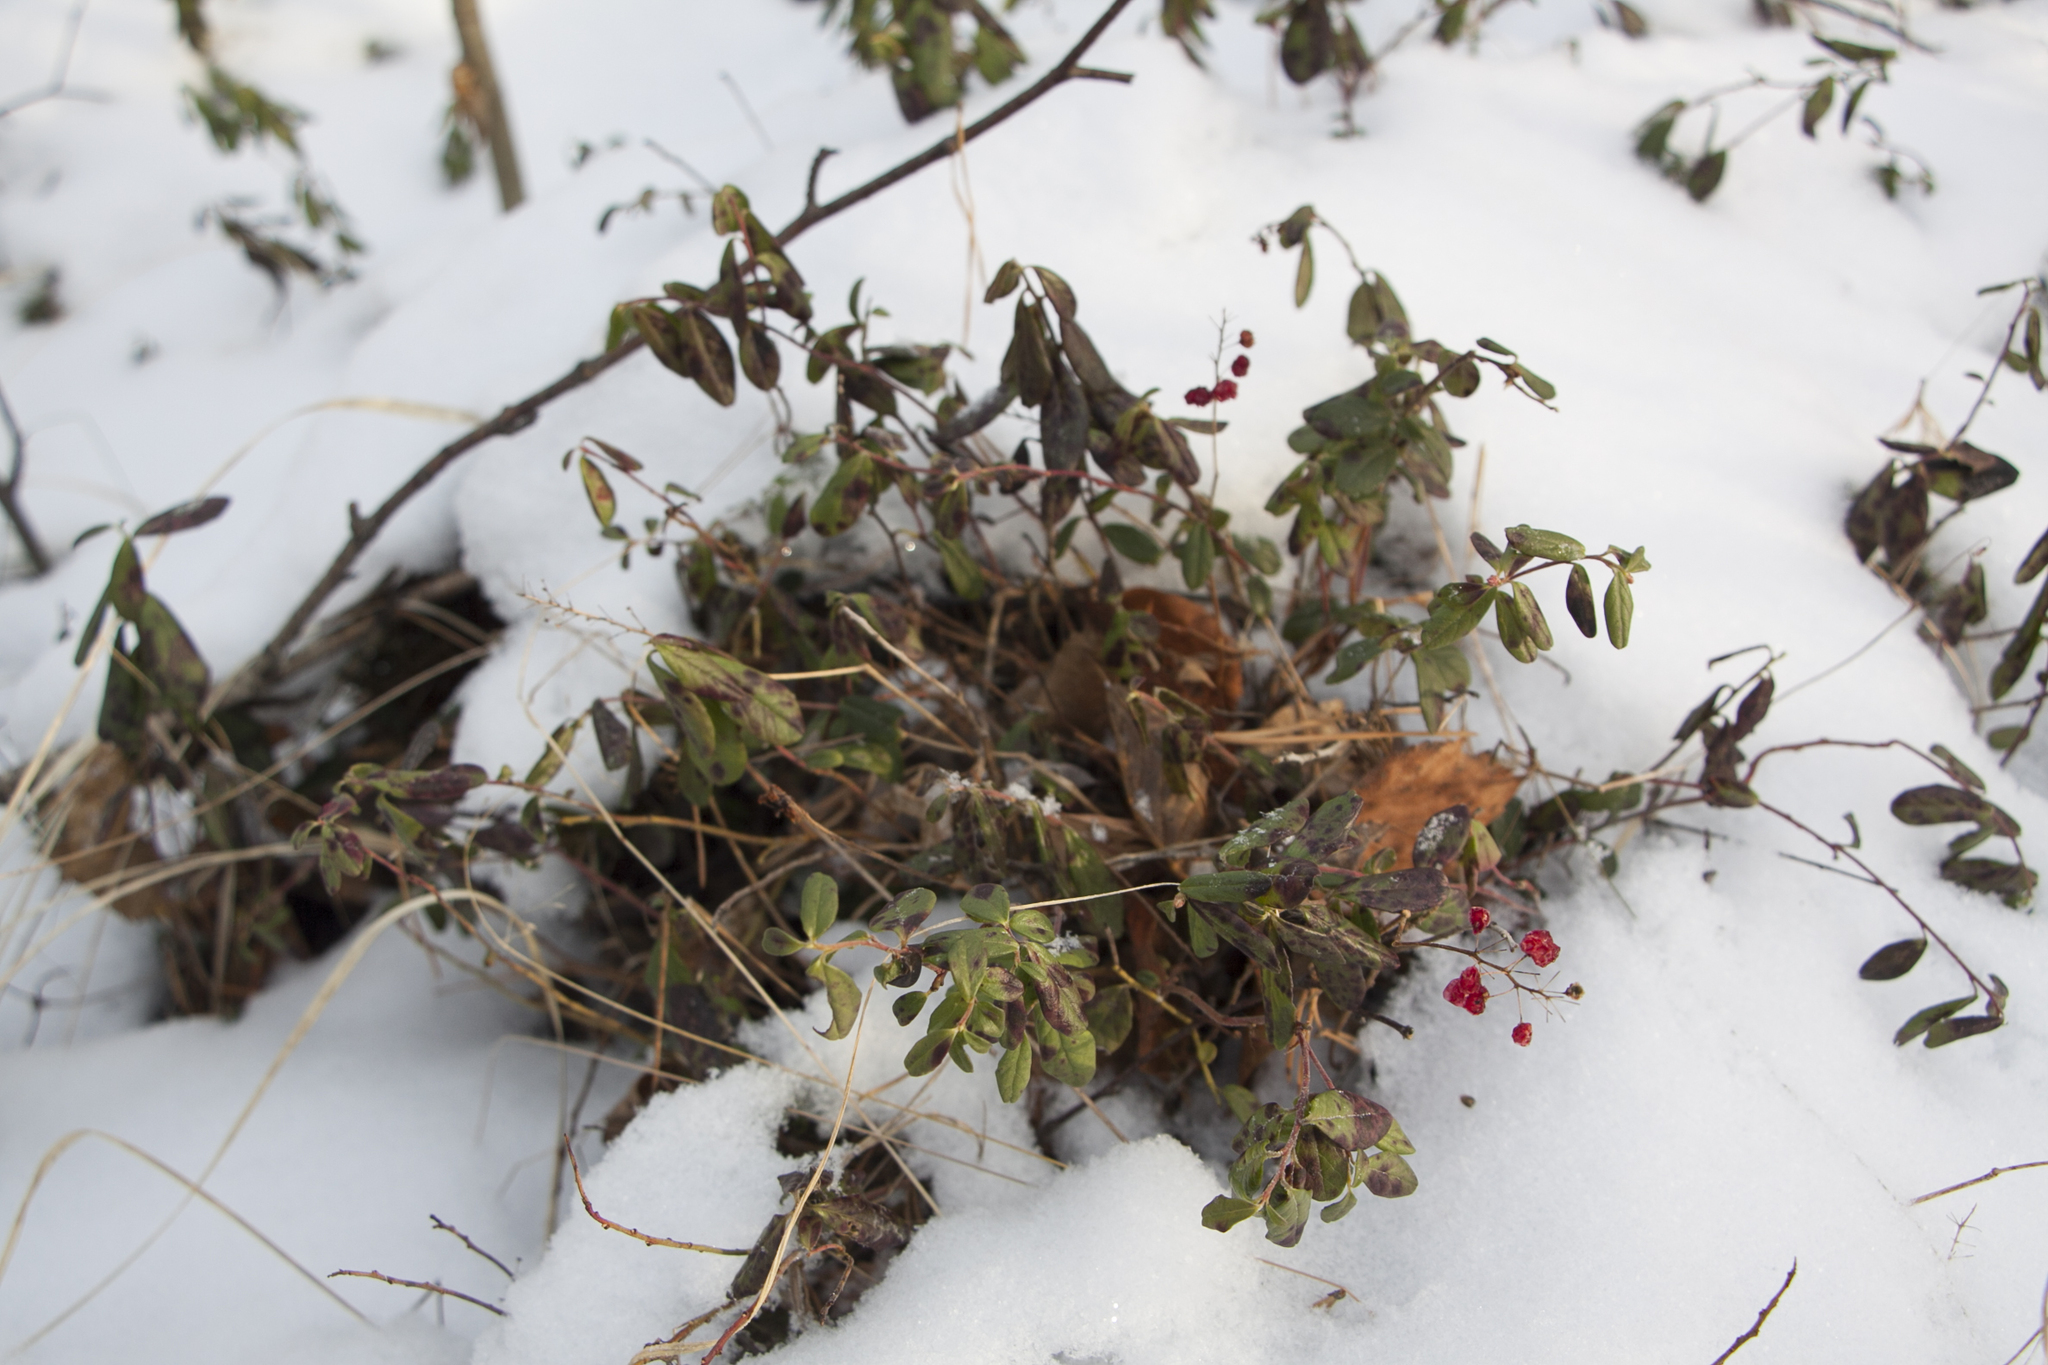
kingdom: Plantae
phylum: Tracheophyta
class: Magnoliopsida
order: Ericales
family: Ericaceae
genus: Vaccinium
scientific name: Vaccinium vitis-idaea
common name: Cowberry
